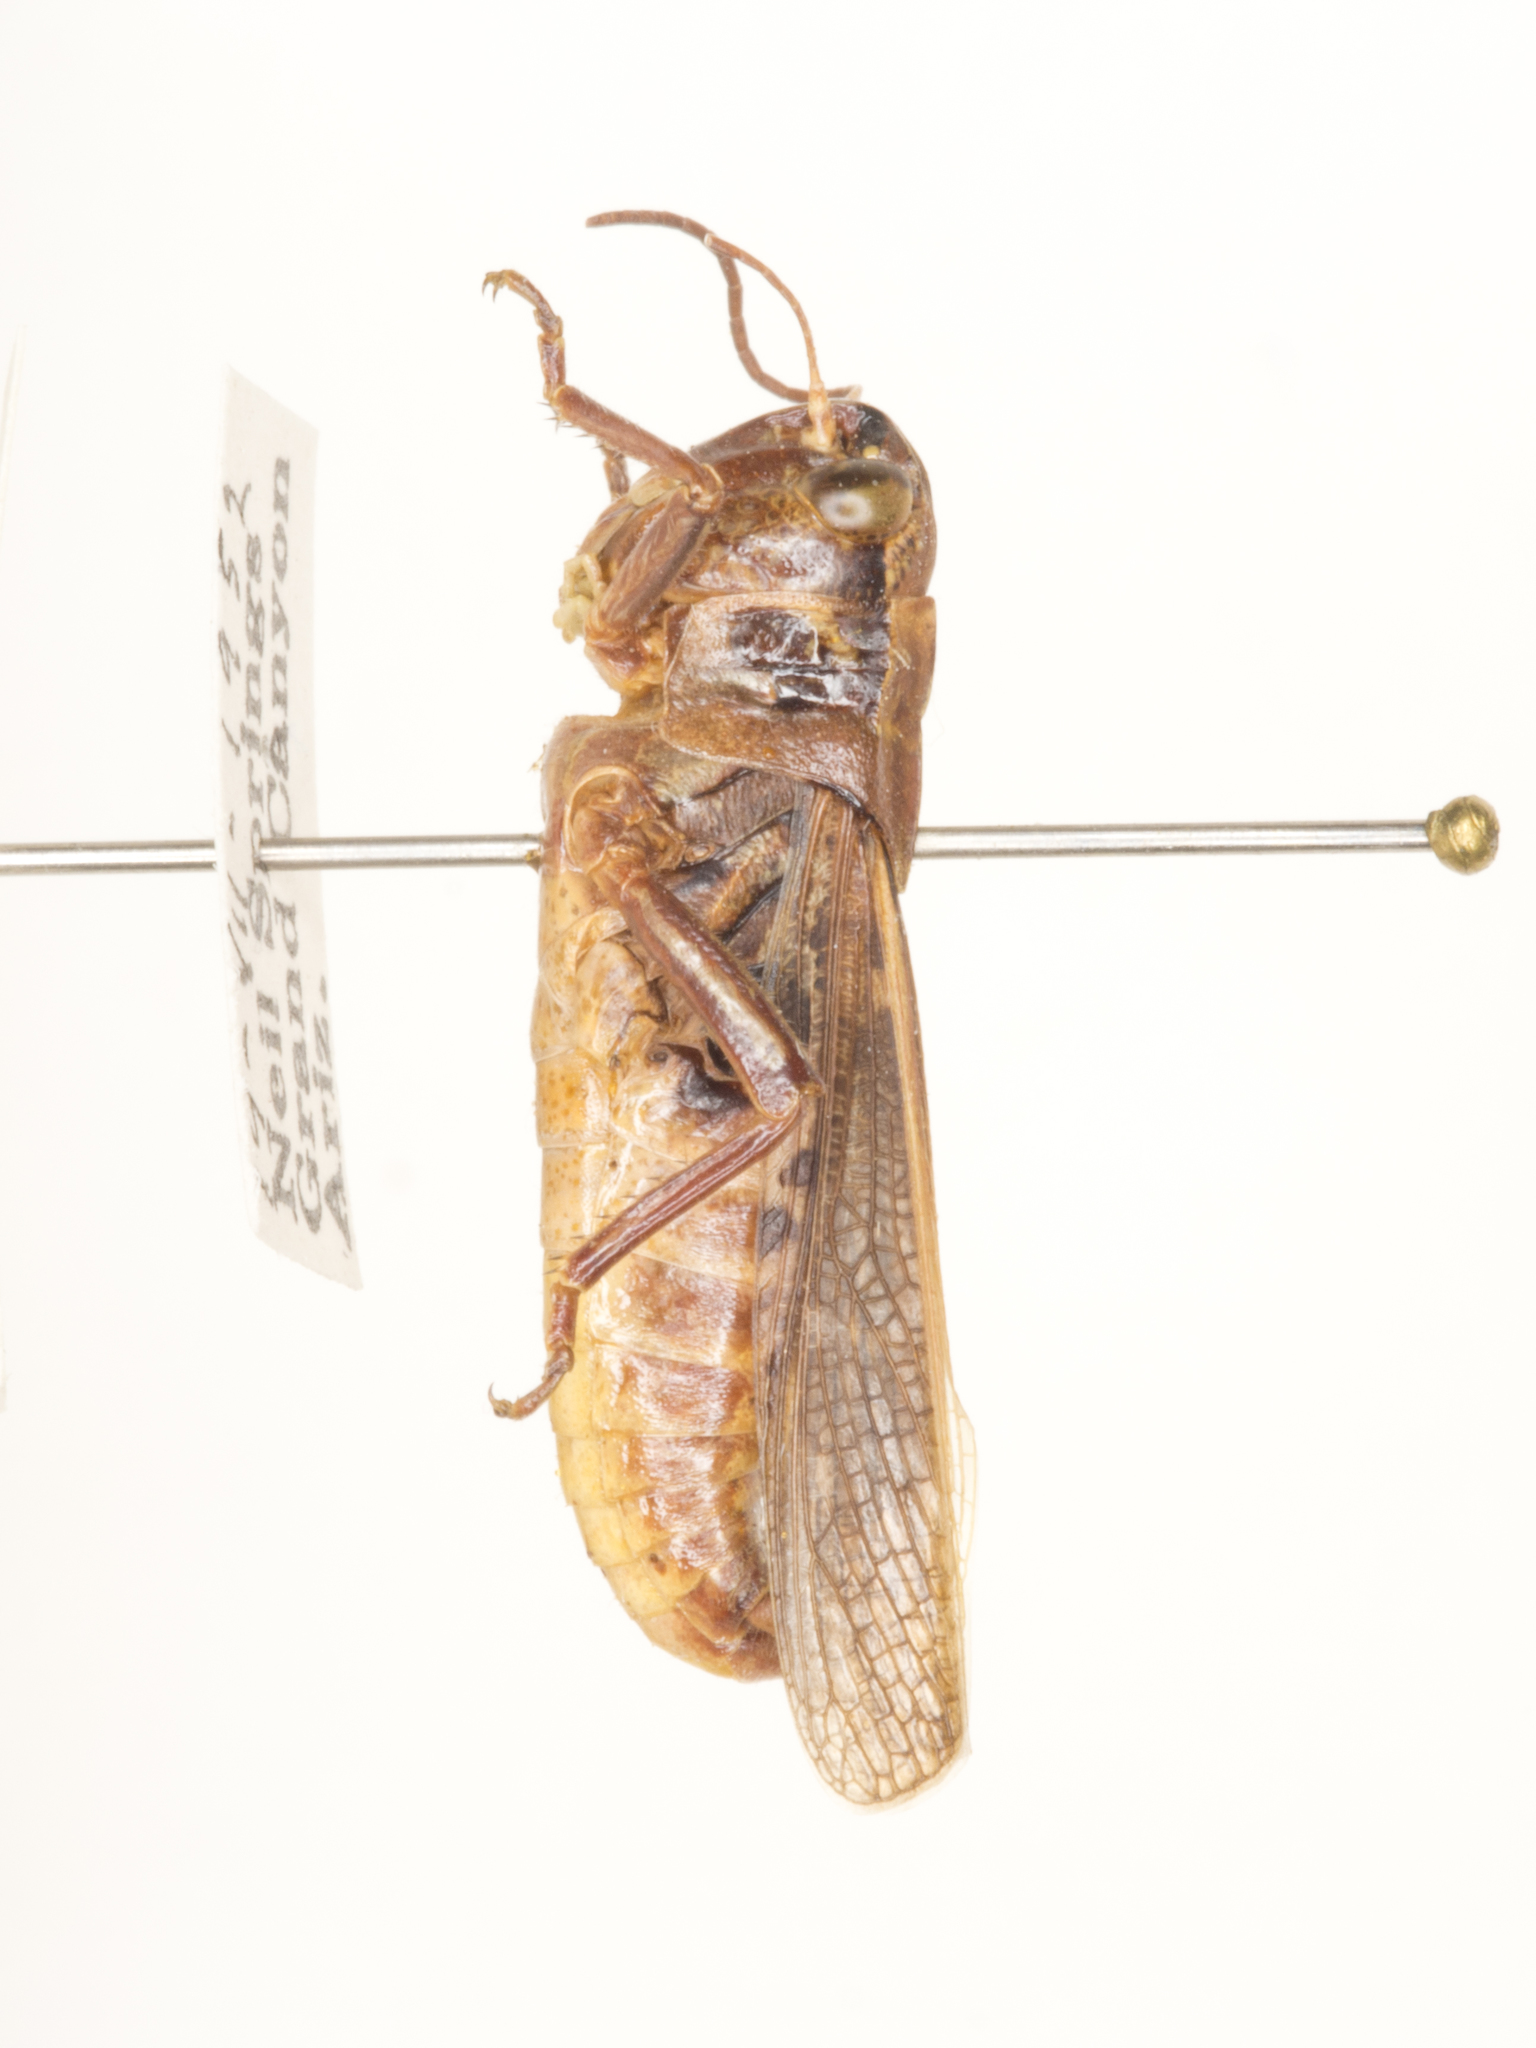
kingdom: Animalia
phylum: Arthropoda
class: Insecta
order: Orthoptera
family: Acrididae
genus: Camnula
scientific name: Camnula pellucida
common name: Clear-winged grasshopper
